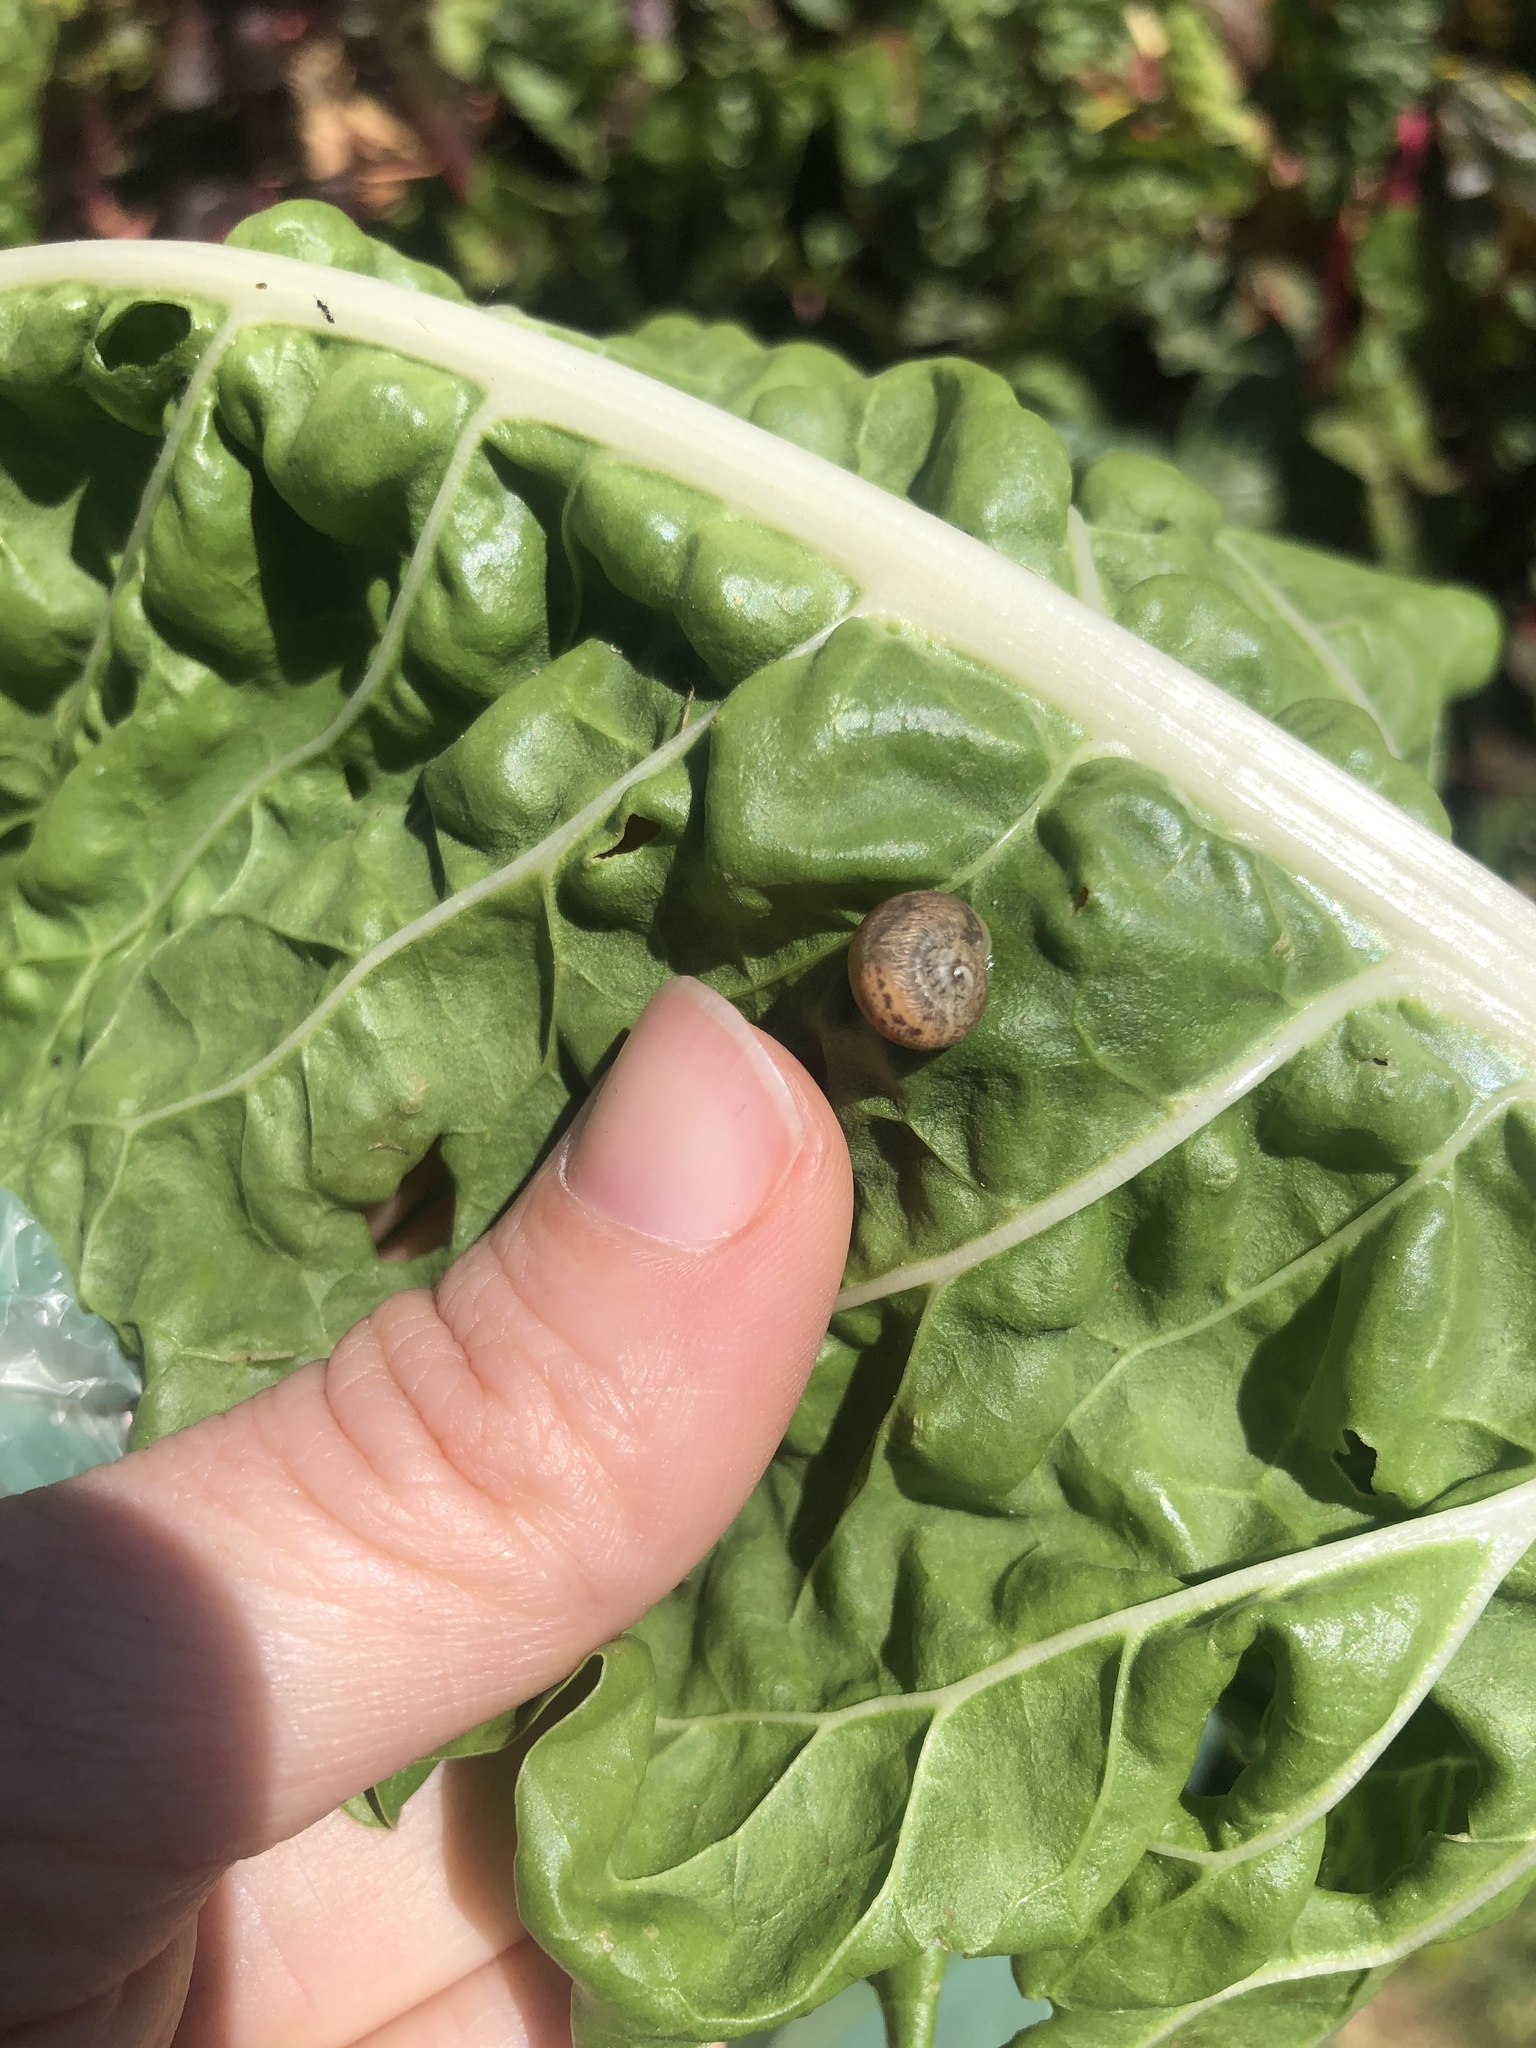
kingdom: Animalia
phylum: Mollusca
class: Gastropoda
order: Stylommatophora
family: Helicidae
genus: Cornu
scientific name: Cornu aspersum
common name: Brown garden snail
